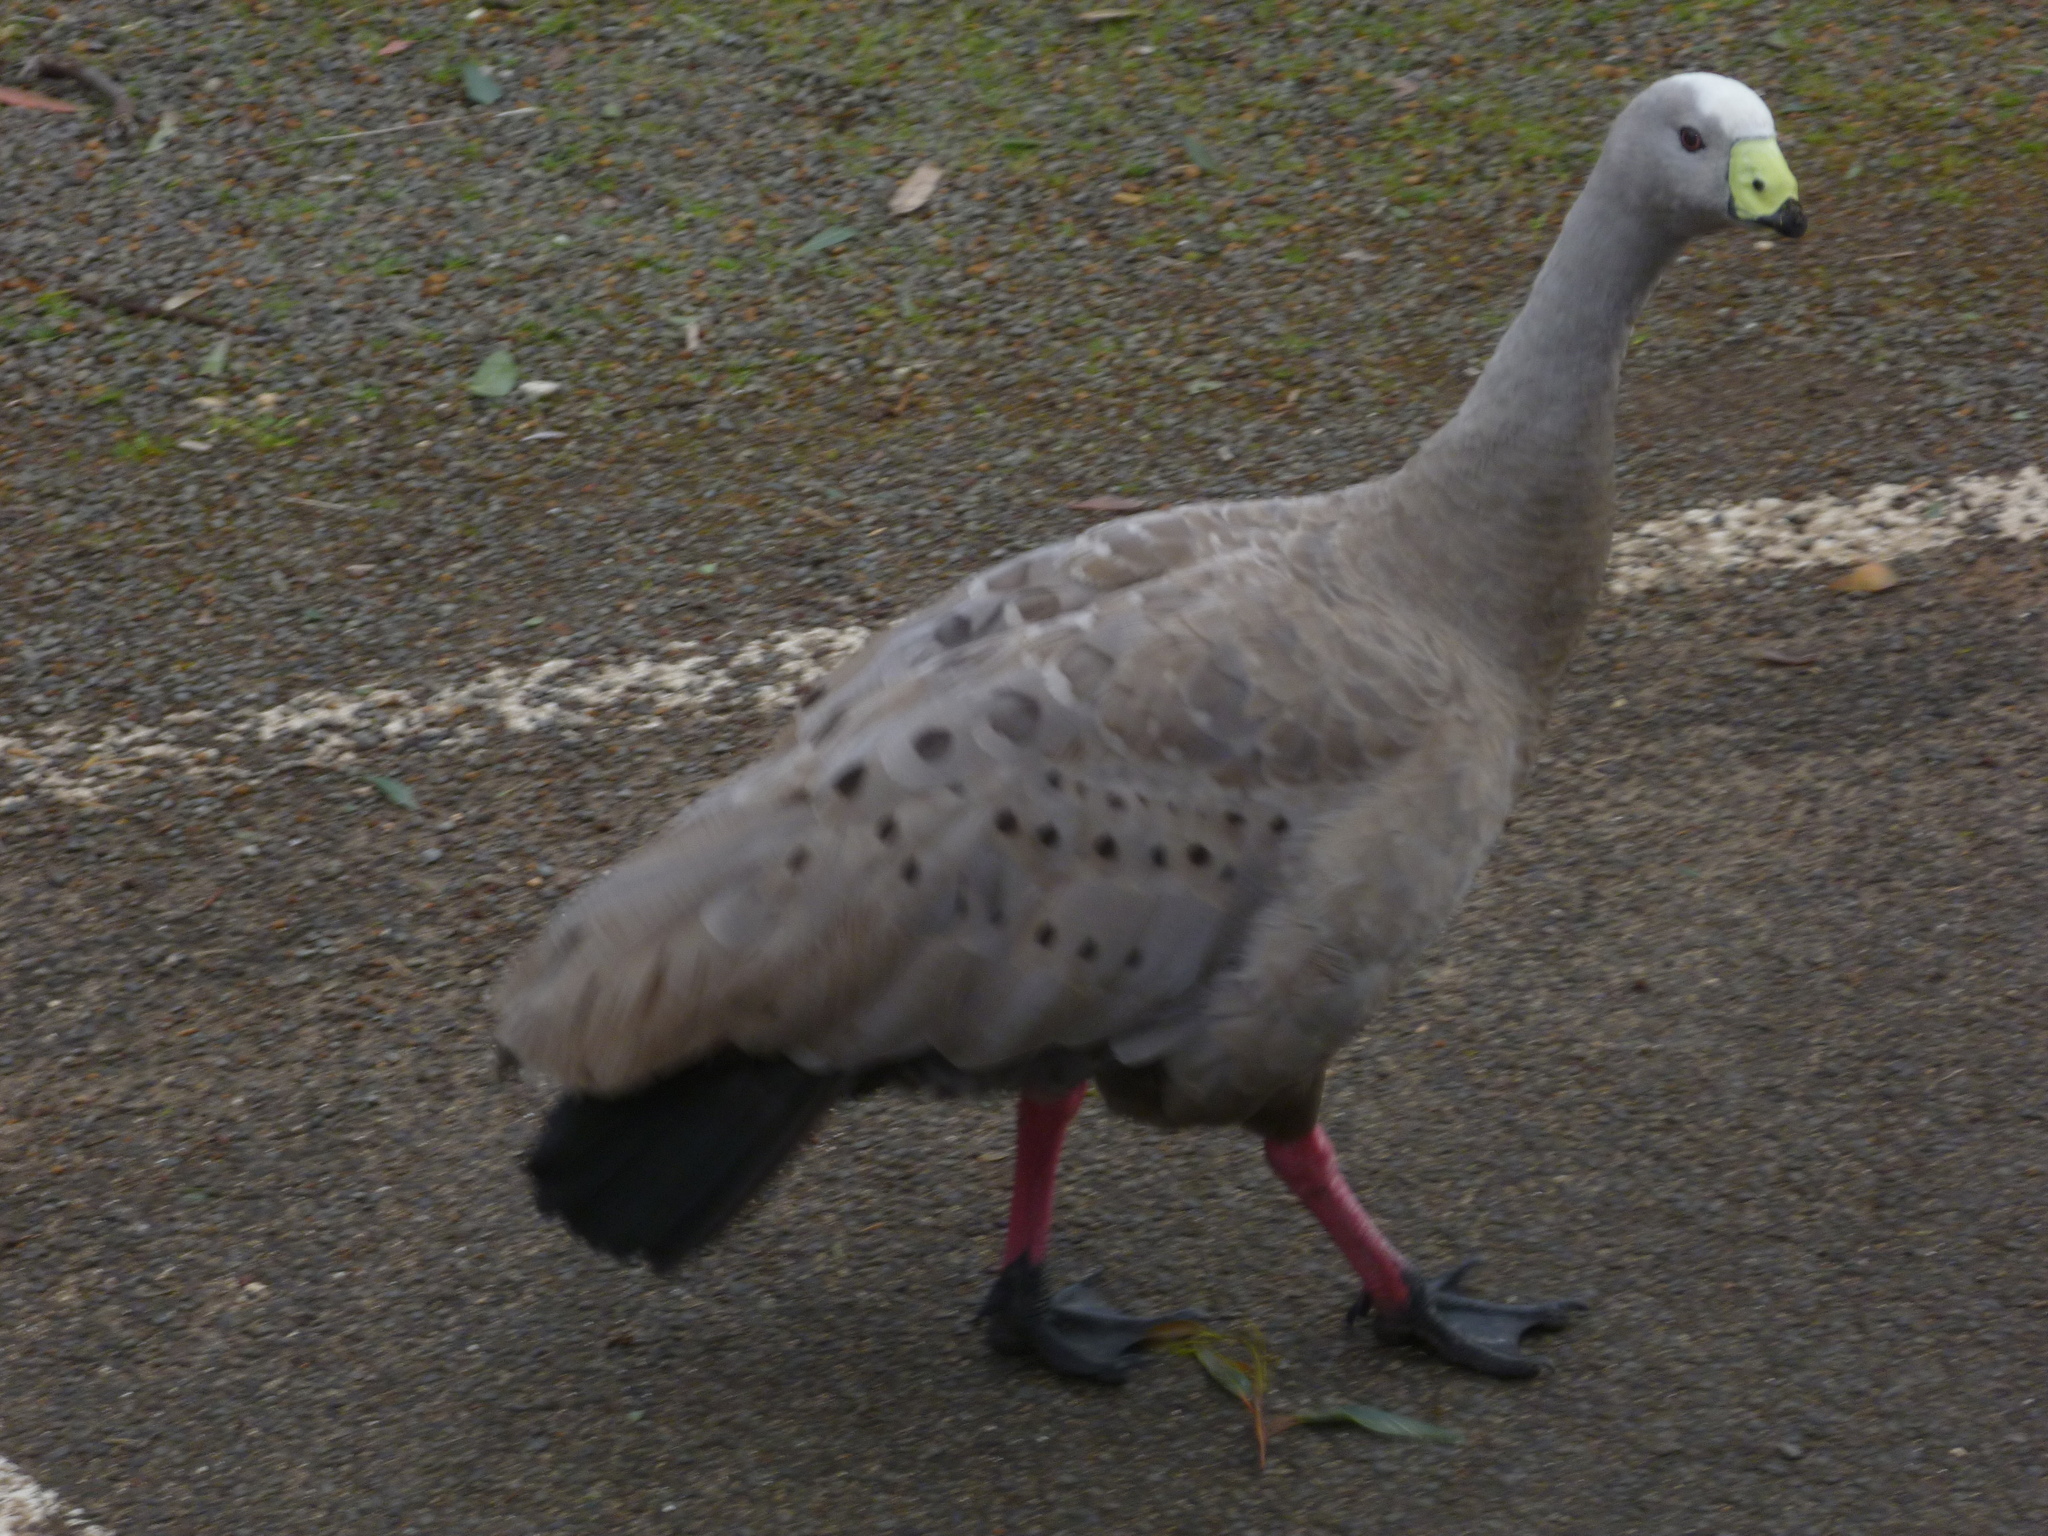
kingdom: Animalia
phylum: Chordata
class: Aves
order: Anseriformes
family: Anatidae
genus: Cereopsis
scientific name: Cereopsis novaehollandiae
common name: Cape barren goose
